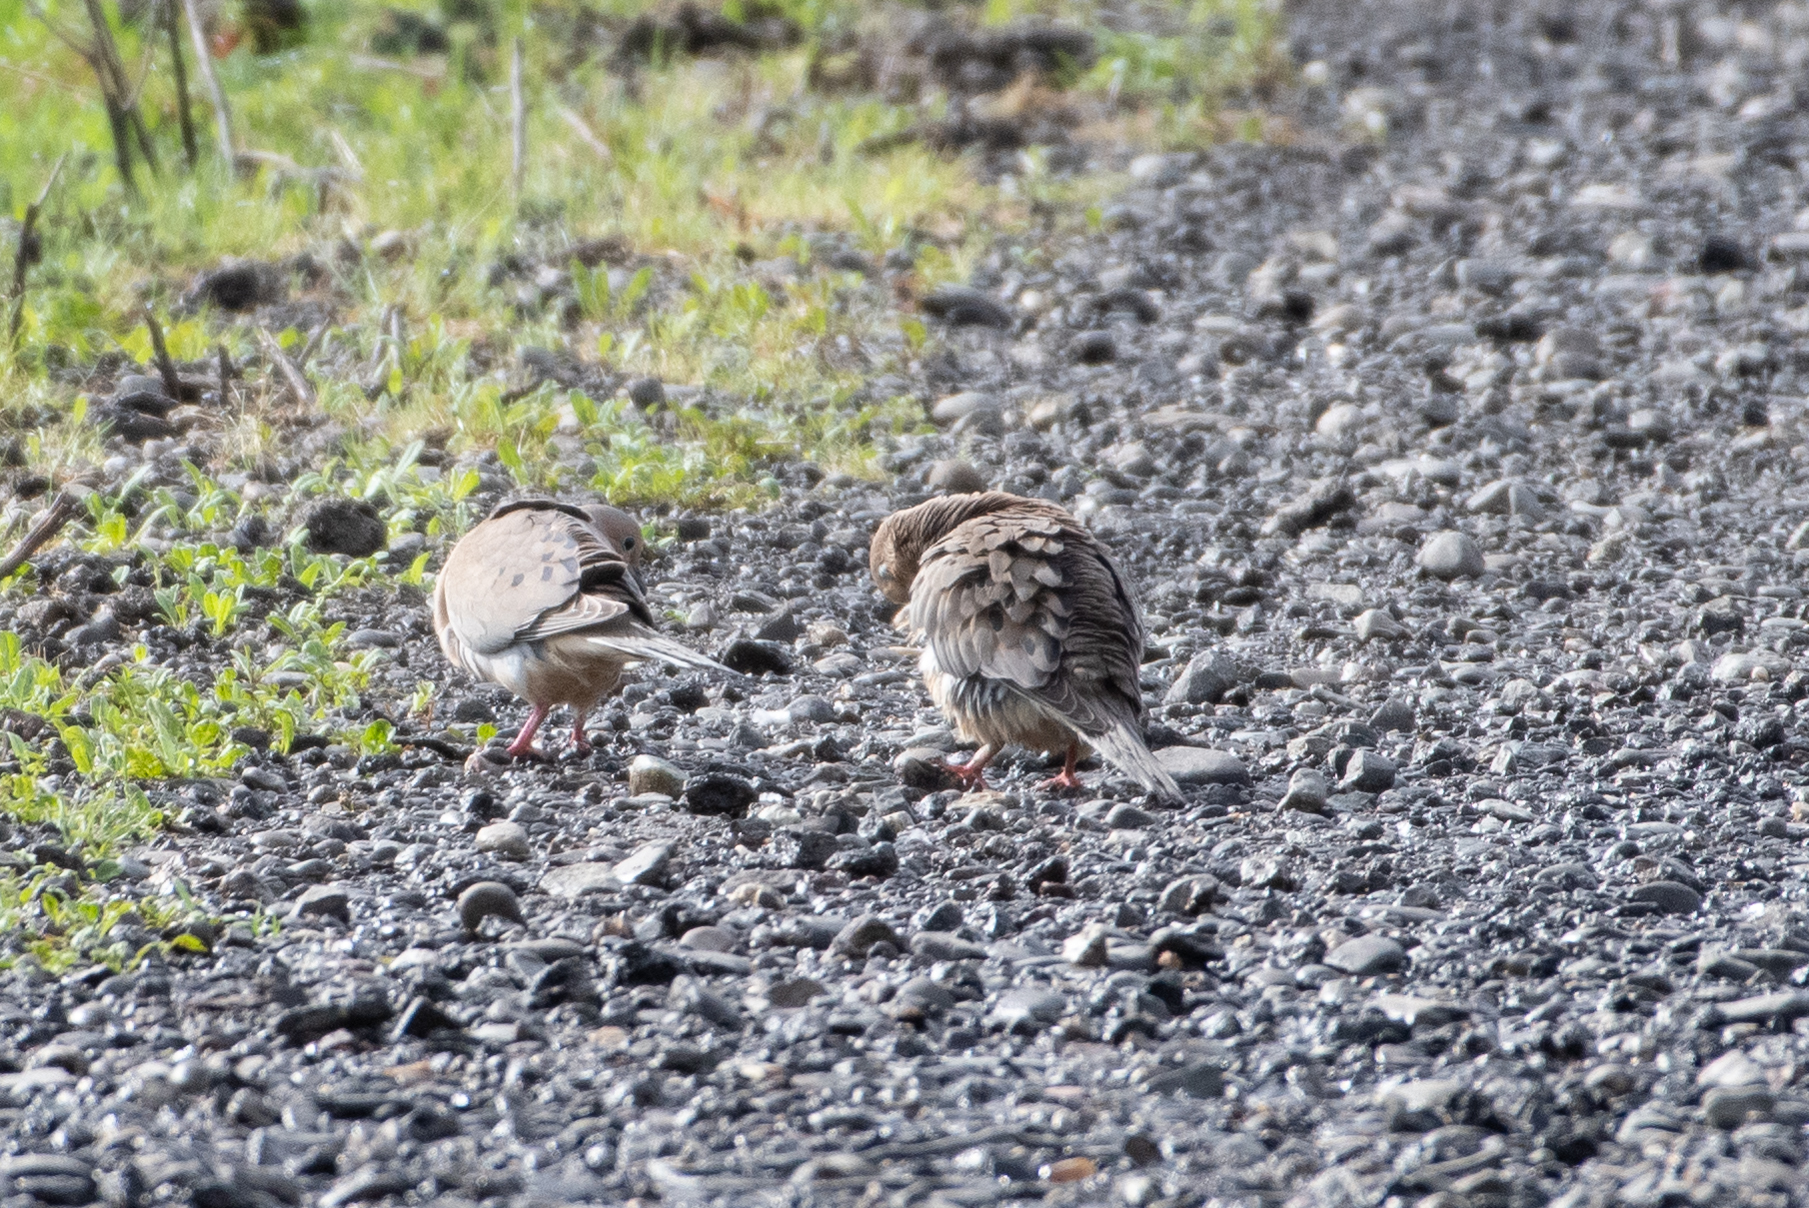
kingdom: Animalia
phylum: Chordata
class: Aves
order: Columbiformes
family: Columbidae
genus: Zenaida
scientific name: Zenaida macroura
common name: Mourning dove
